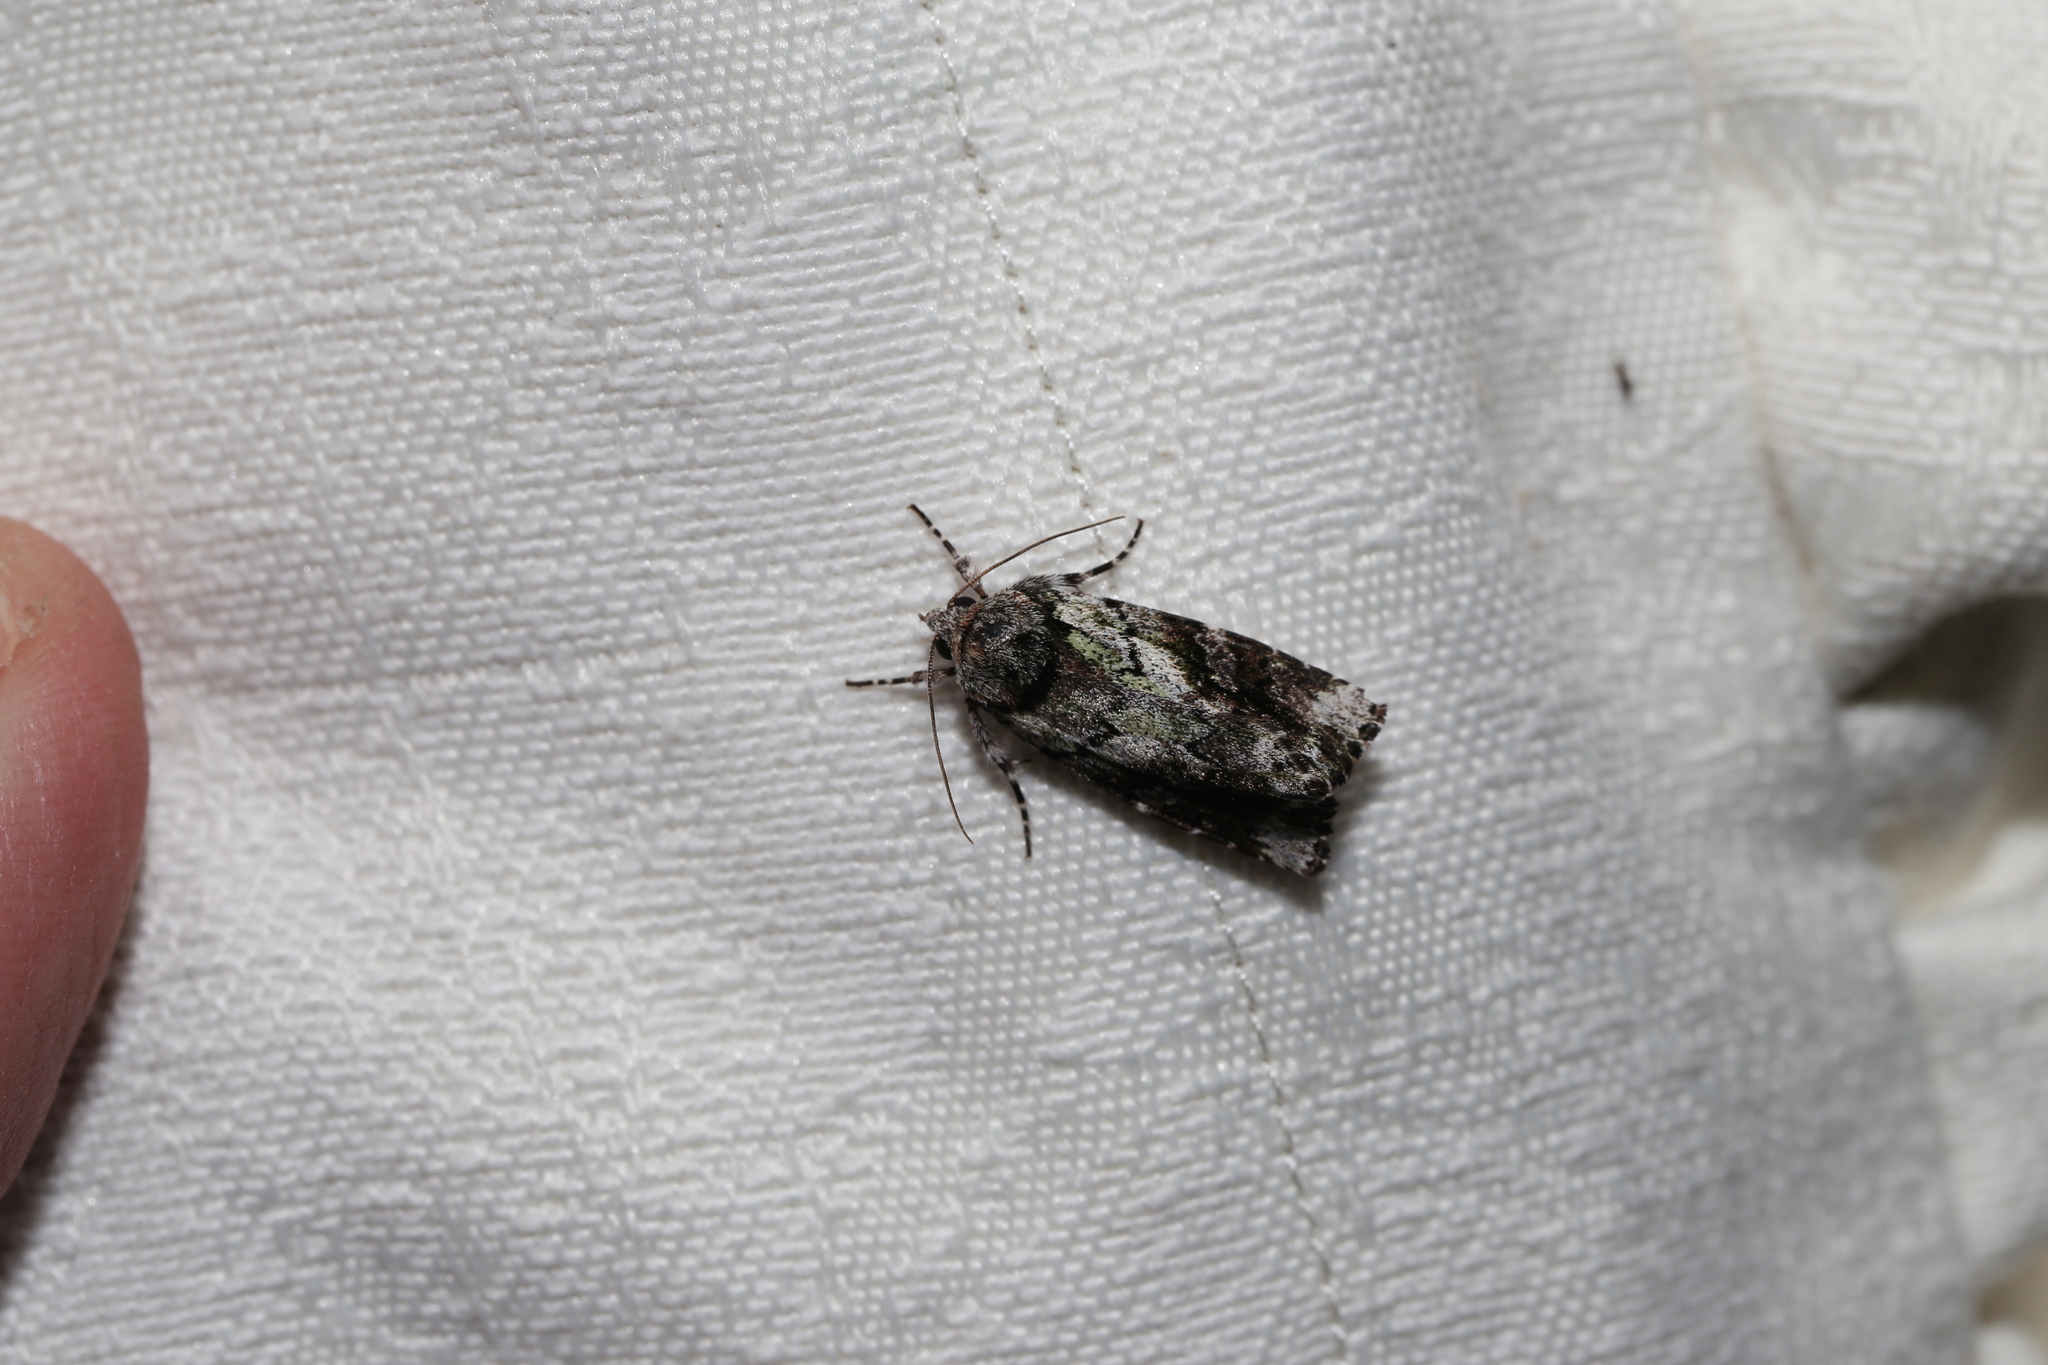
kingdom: Animalia
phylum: Arthropoda
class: Insecta
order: Lepidoptera
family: Noctuidae
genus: Prometopus
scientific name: Prometopus inassueta
